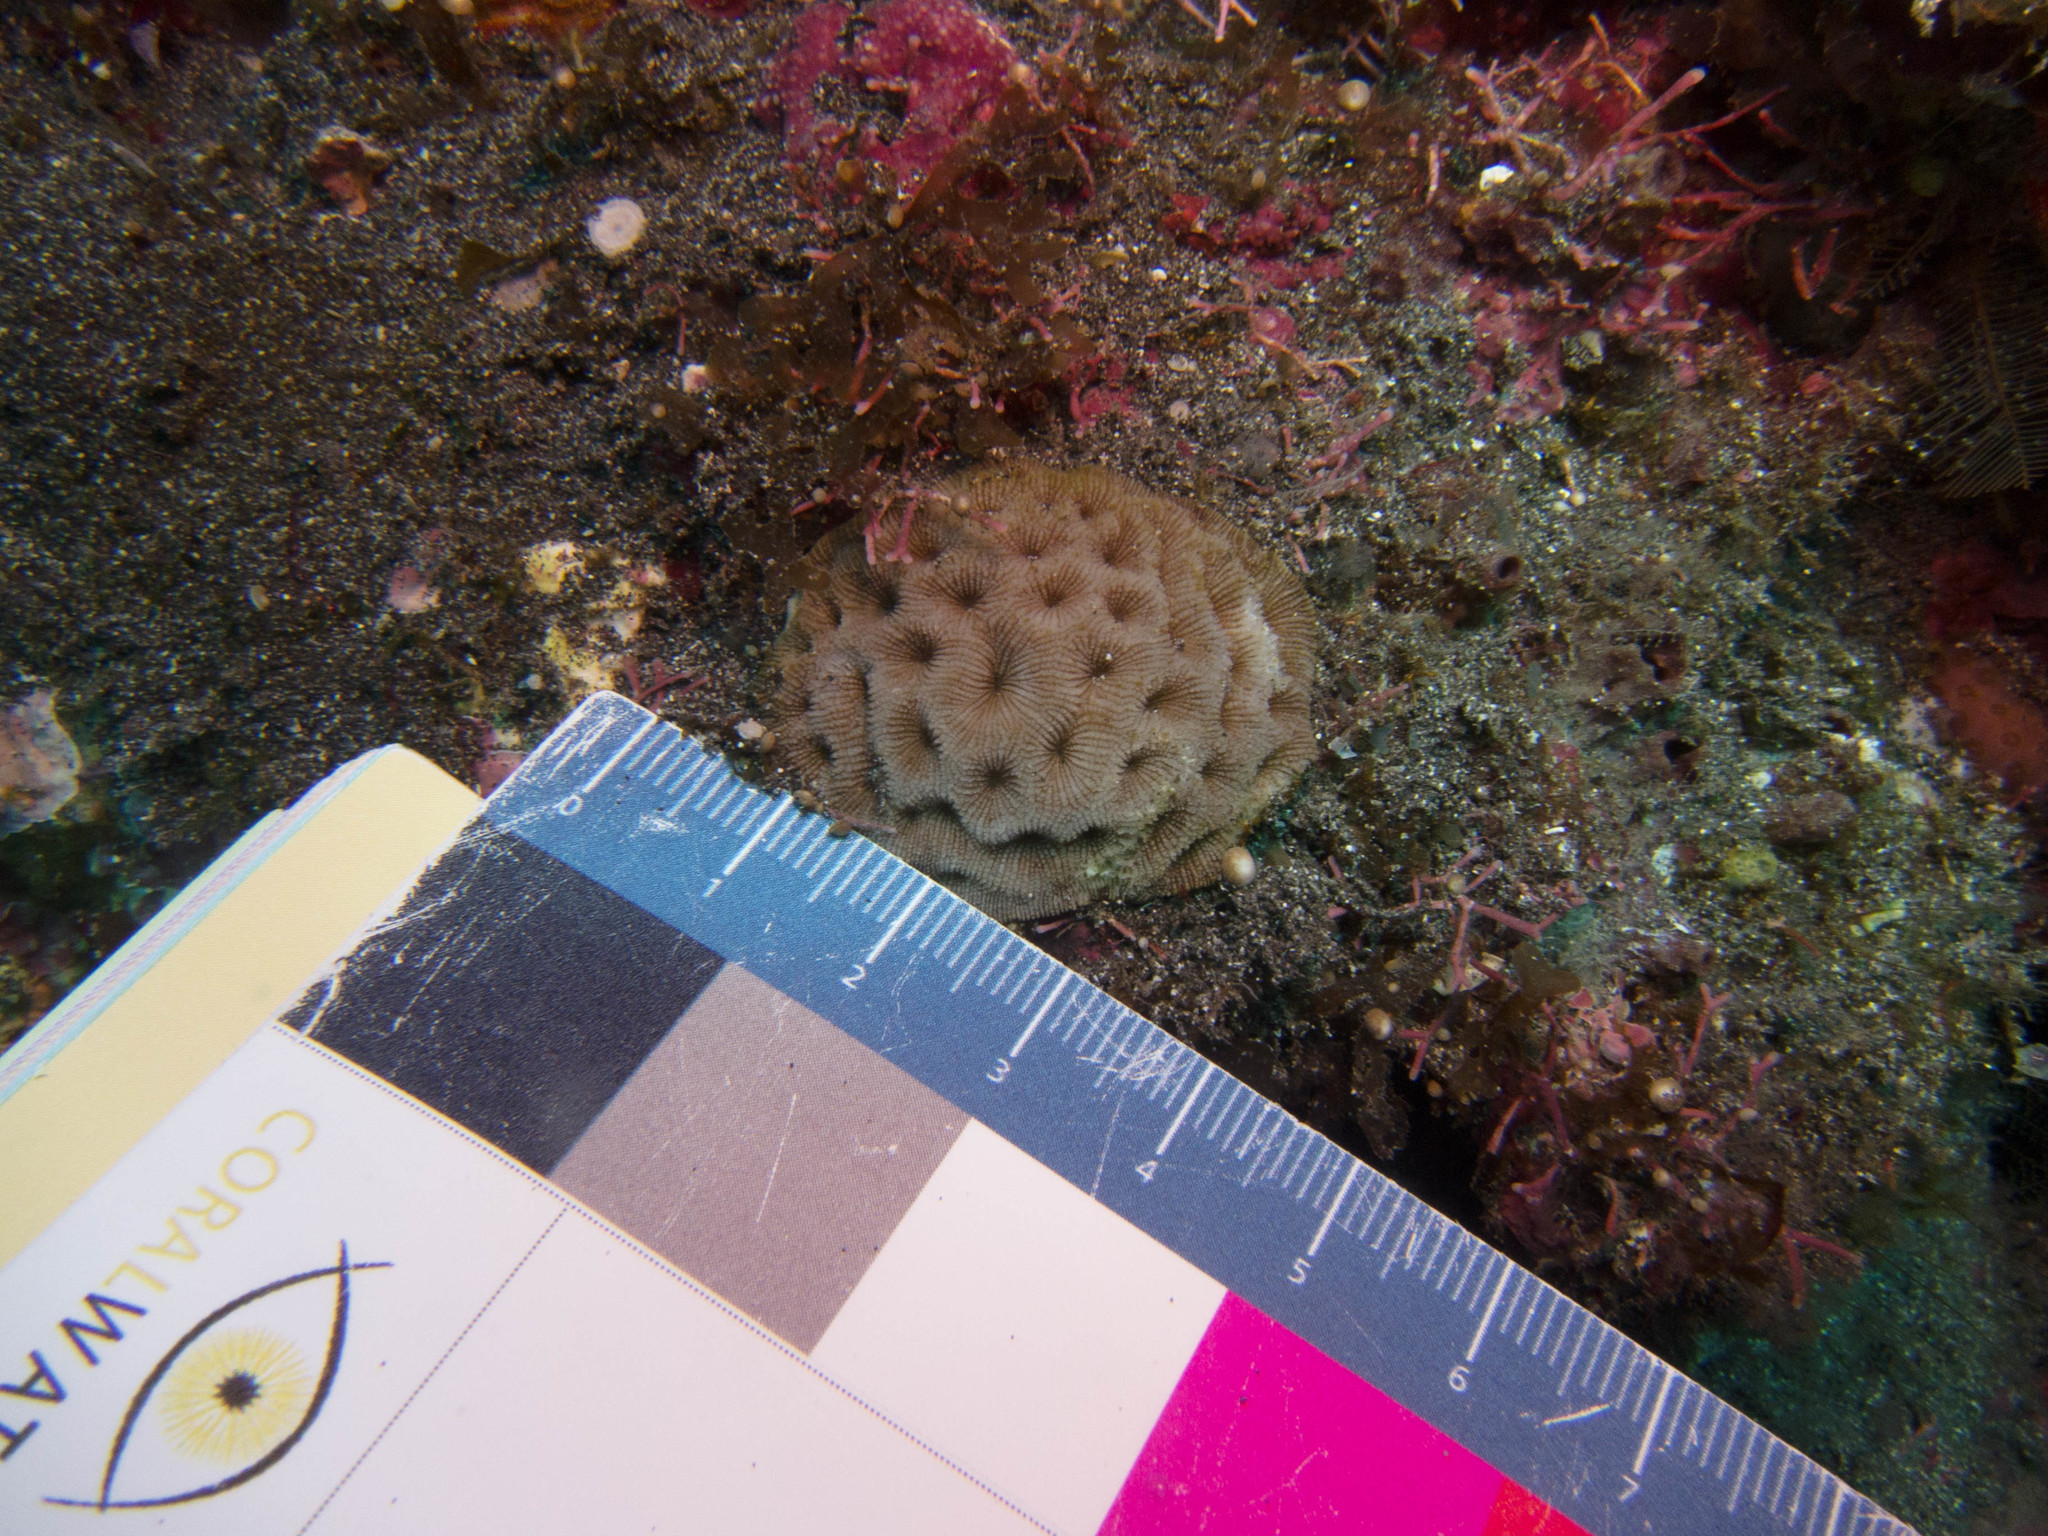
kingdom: Animalia
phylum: Cnidaria
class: Anthozoa
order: Scleractinia
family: Coscinaraeidae
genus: Coscinaraea
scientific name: Coscinaraea monile
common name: Wrinkle coral
